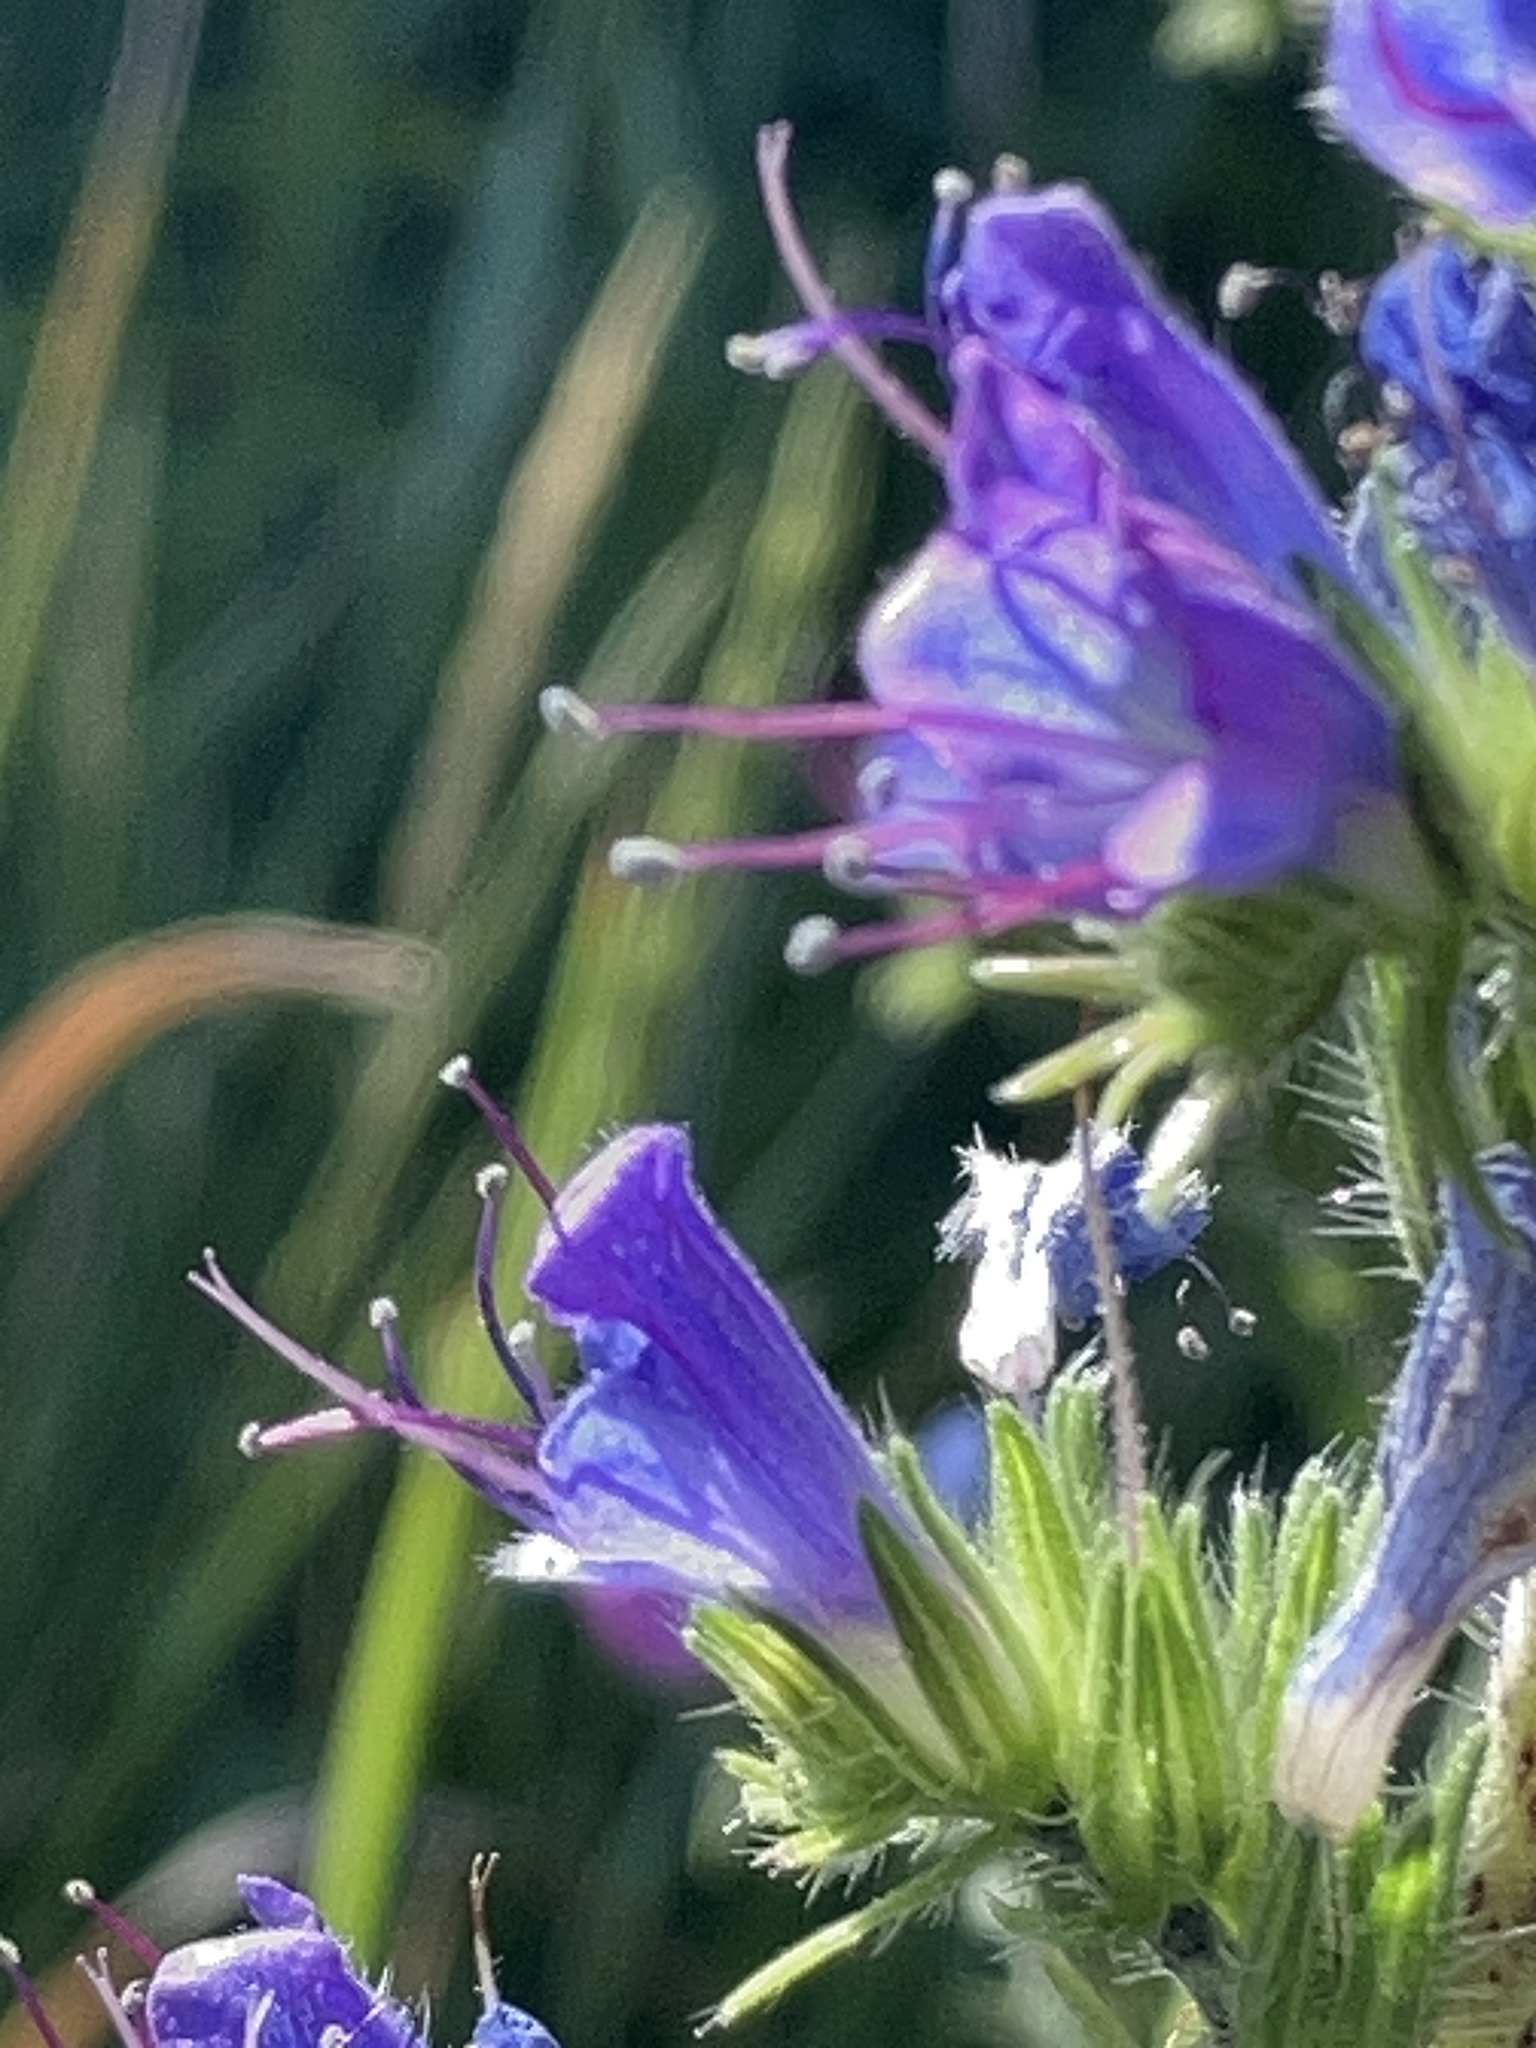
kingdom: Plantae
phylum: Tracheophyta
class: Magnoliopsida
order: Boraginales
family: Boraginaceae
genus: Echium
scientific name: Echium vulgare
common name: Common viper's bugloss
